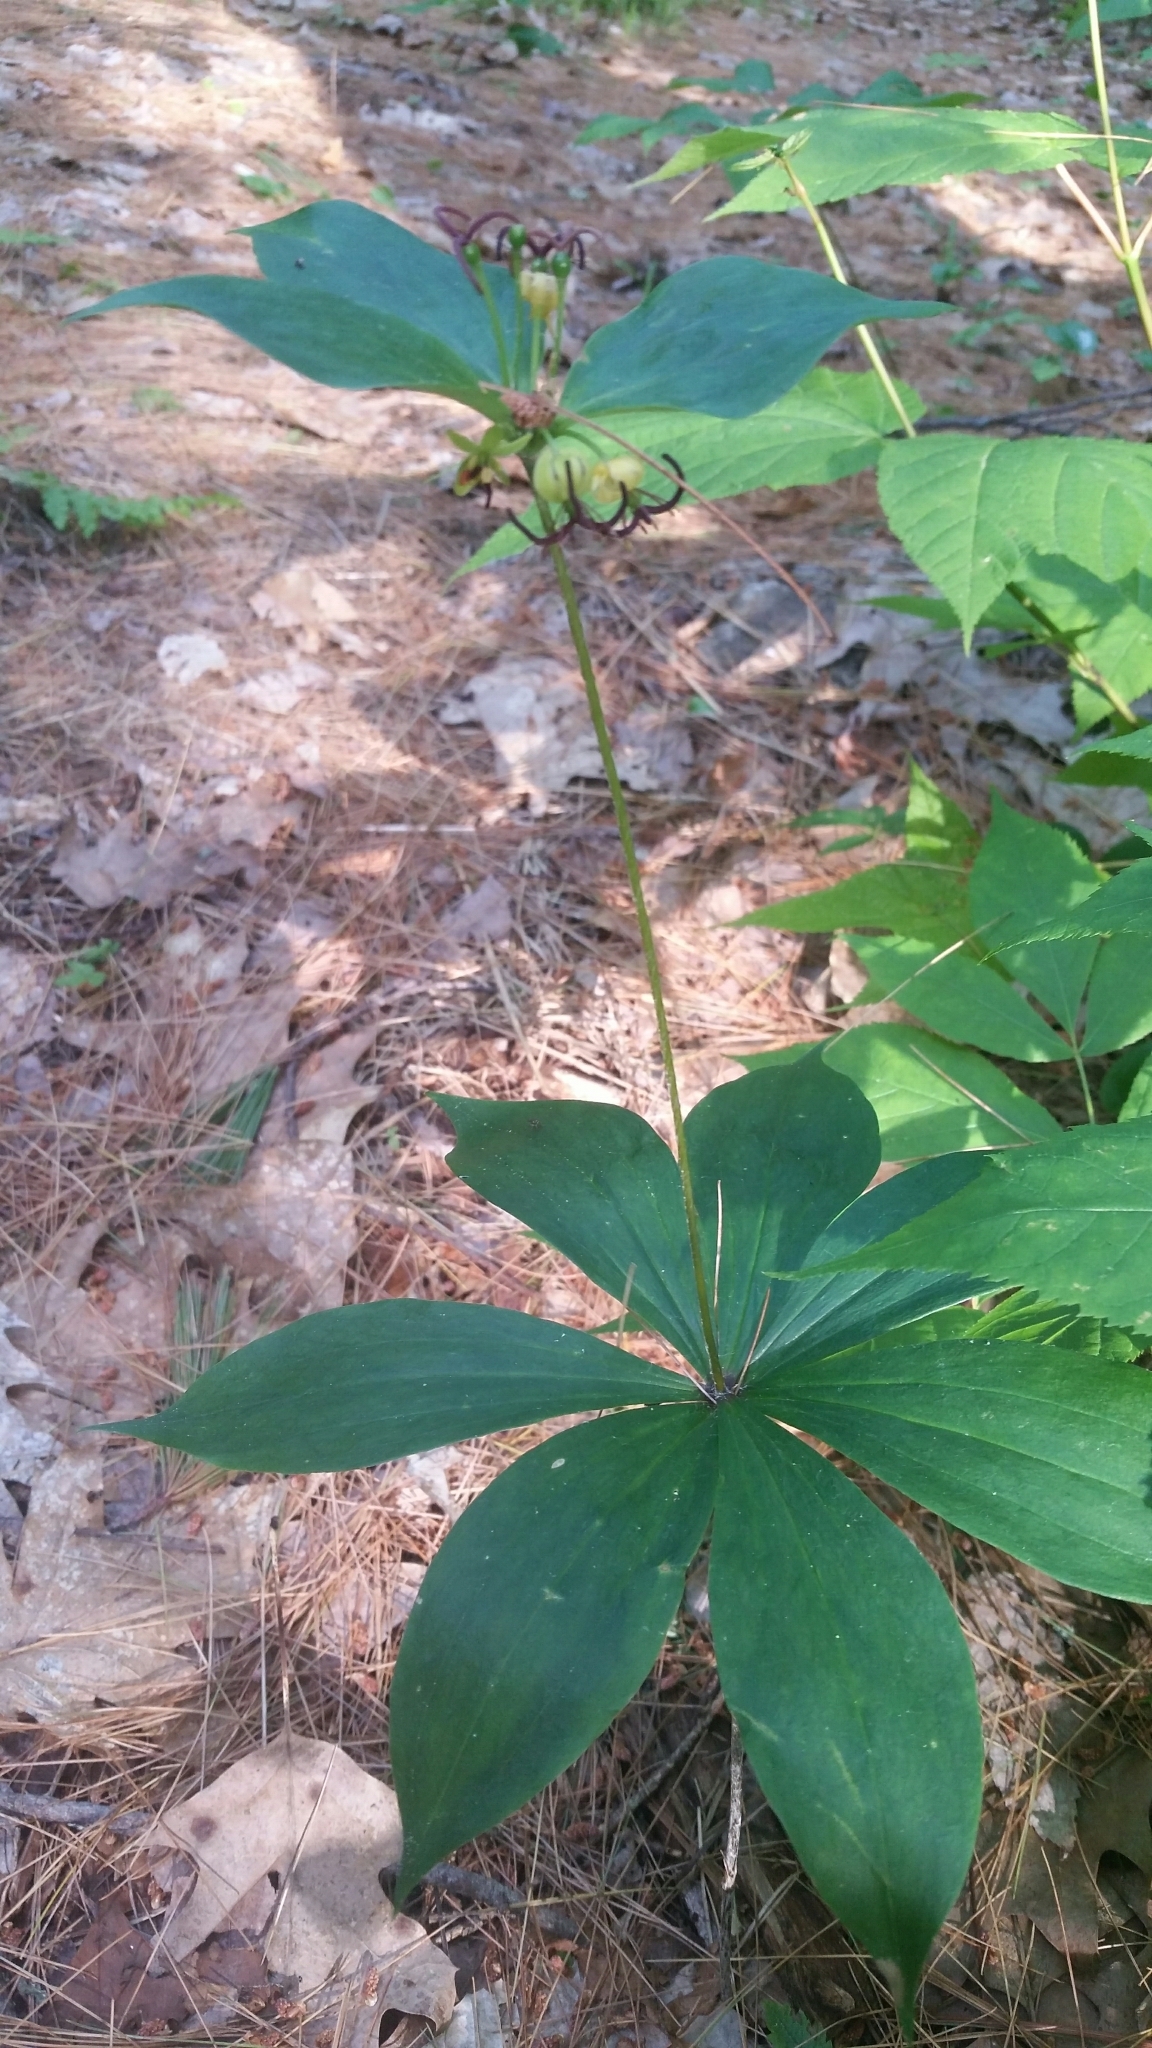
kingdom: Plantae
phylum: Tracheophyta
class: Liliopsida
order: Liliales
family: Liliaceae
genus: Medeola
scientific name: Medeola virginiana
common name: Indian cucumber-root
